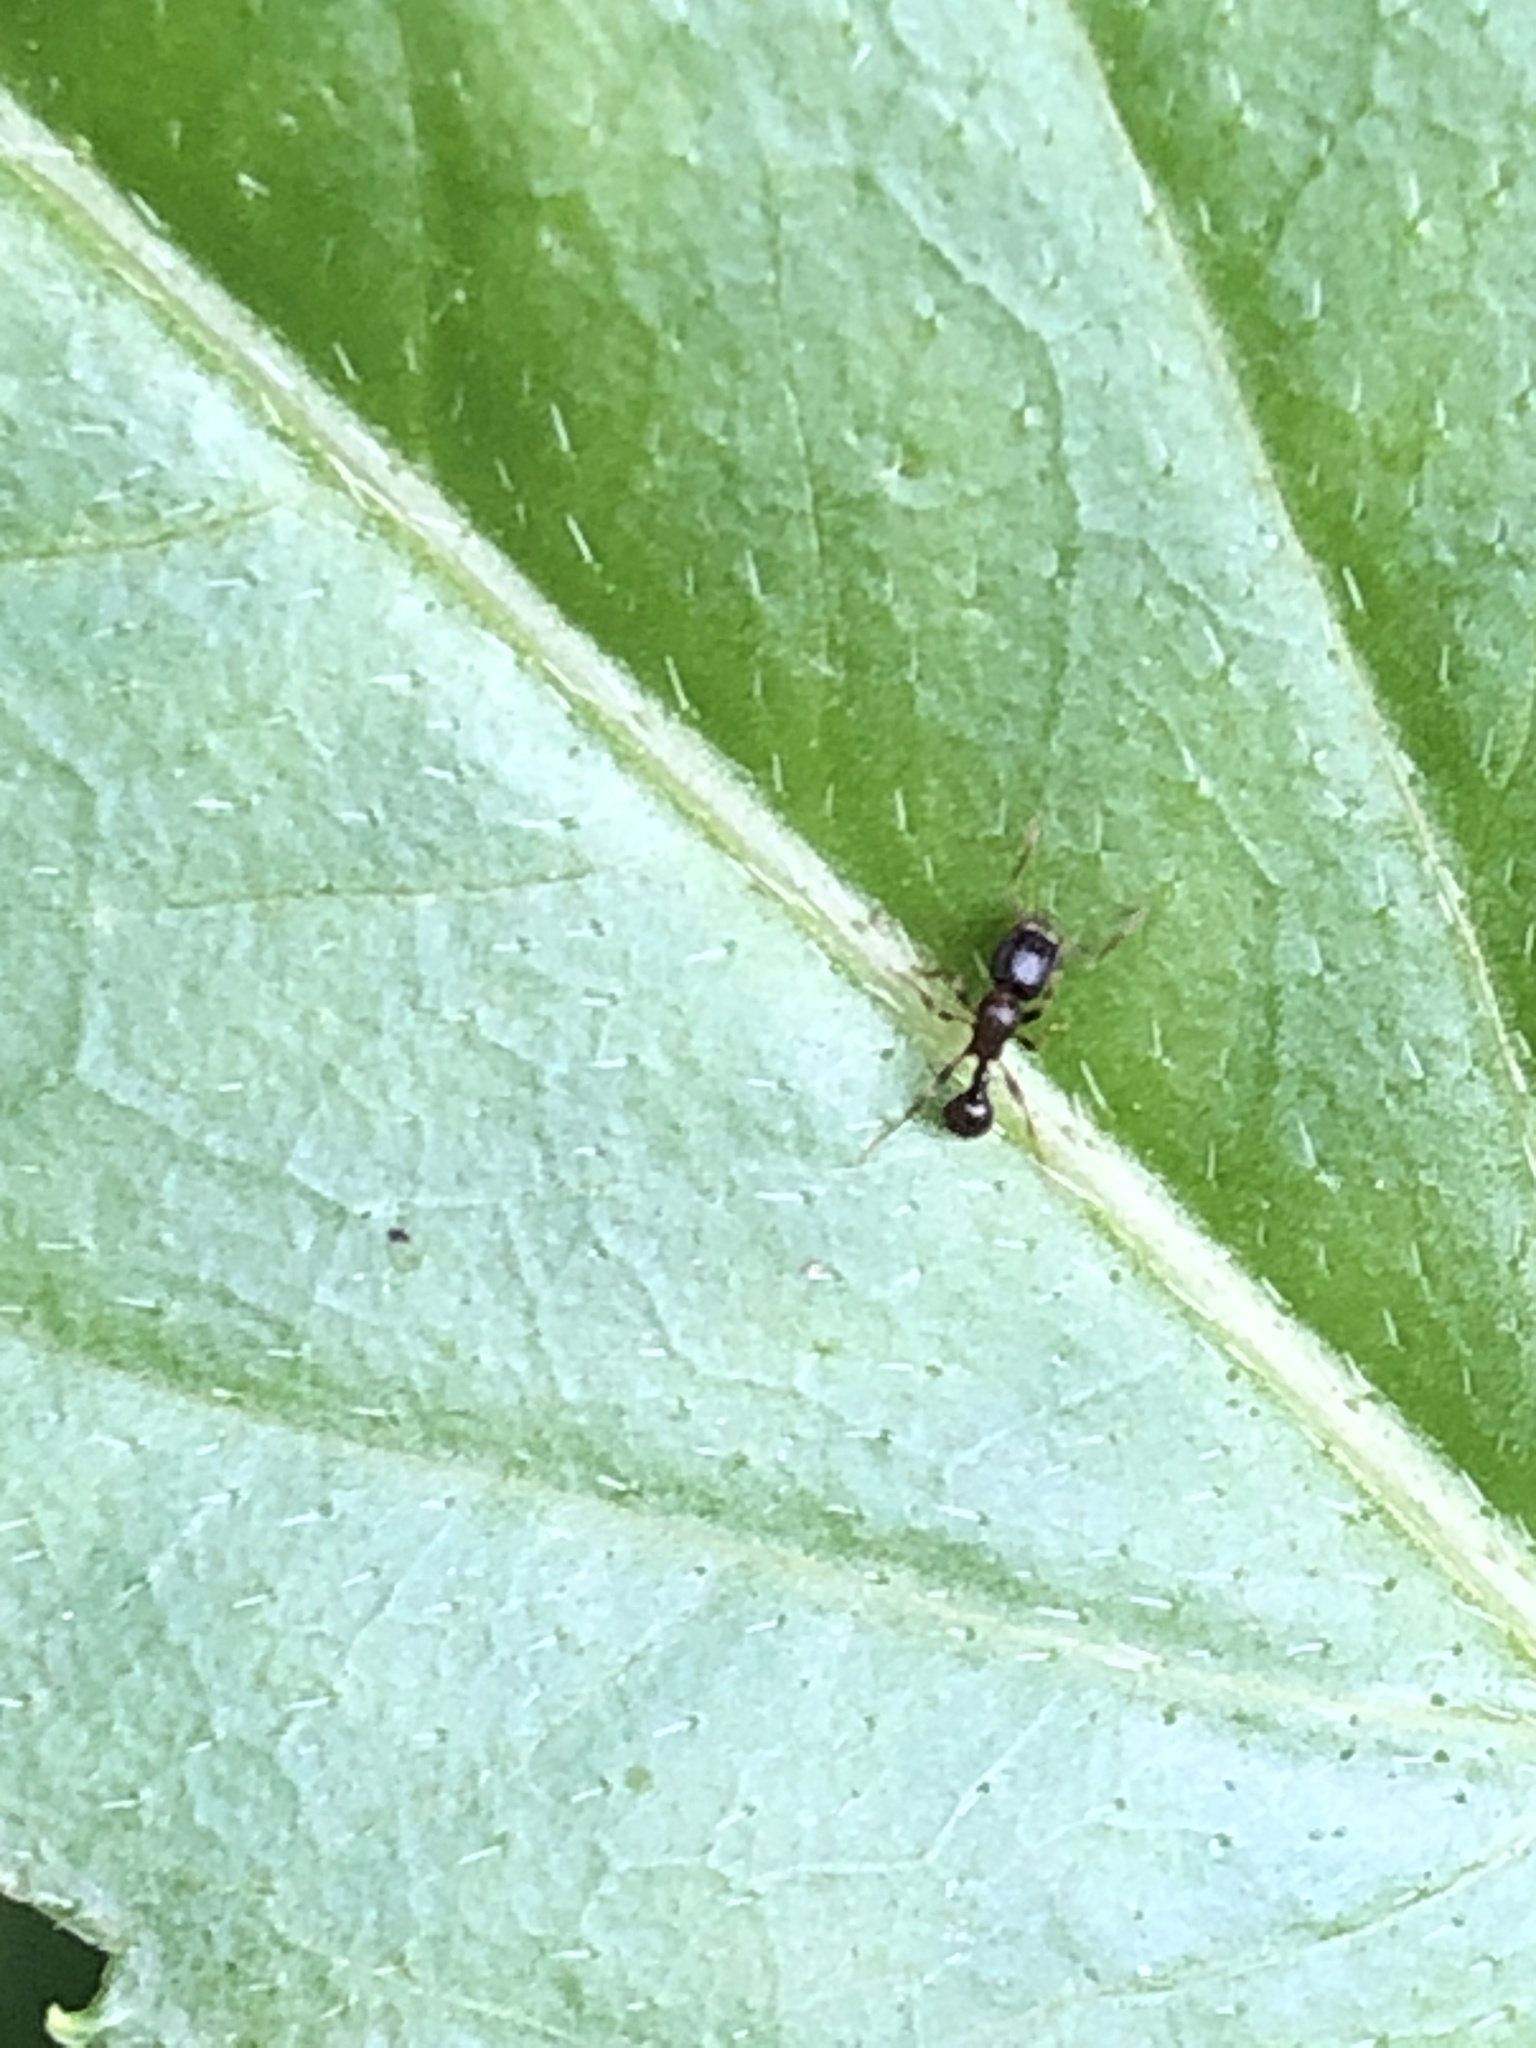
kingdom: Animalia
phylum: Arthropoda
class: Insecta
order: Hymenoptera
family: Formicidae
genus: Tetramorium
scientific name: Tetramorium tsushimae
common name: Ant
